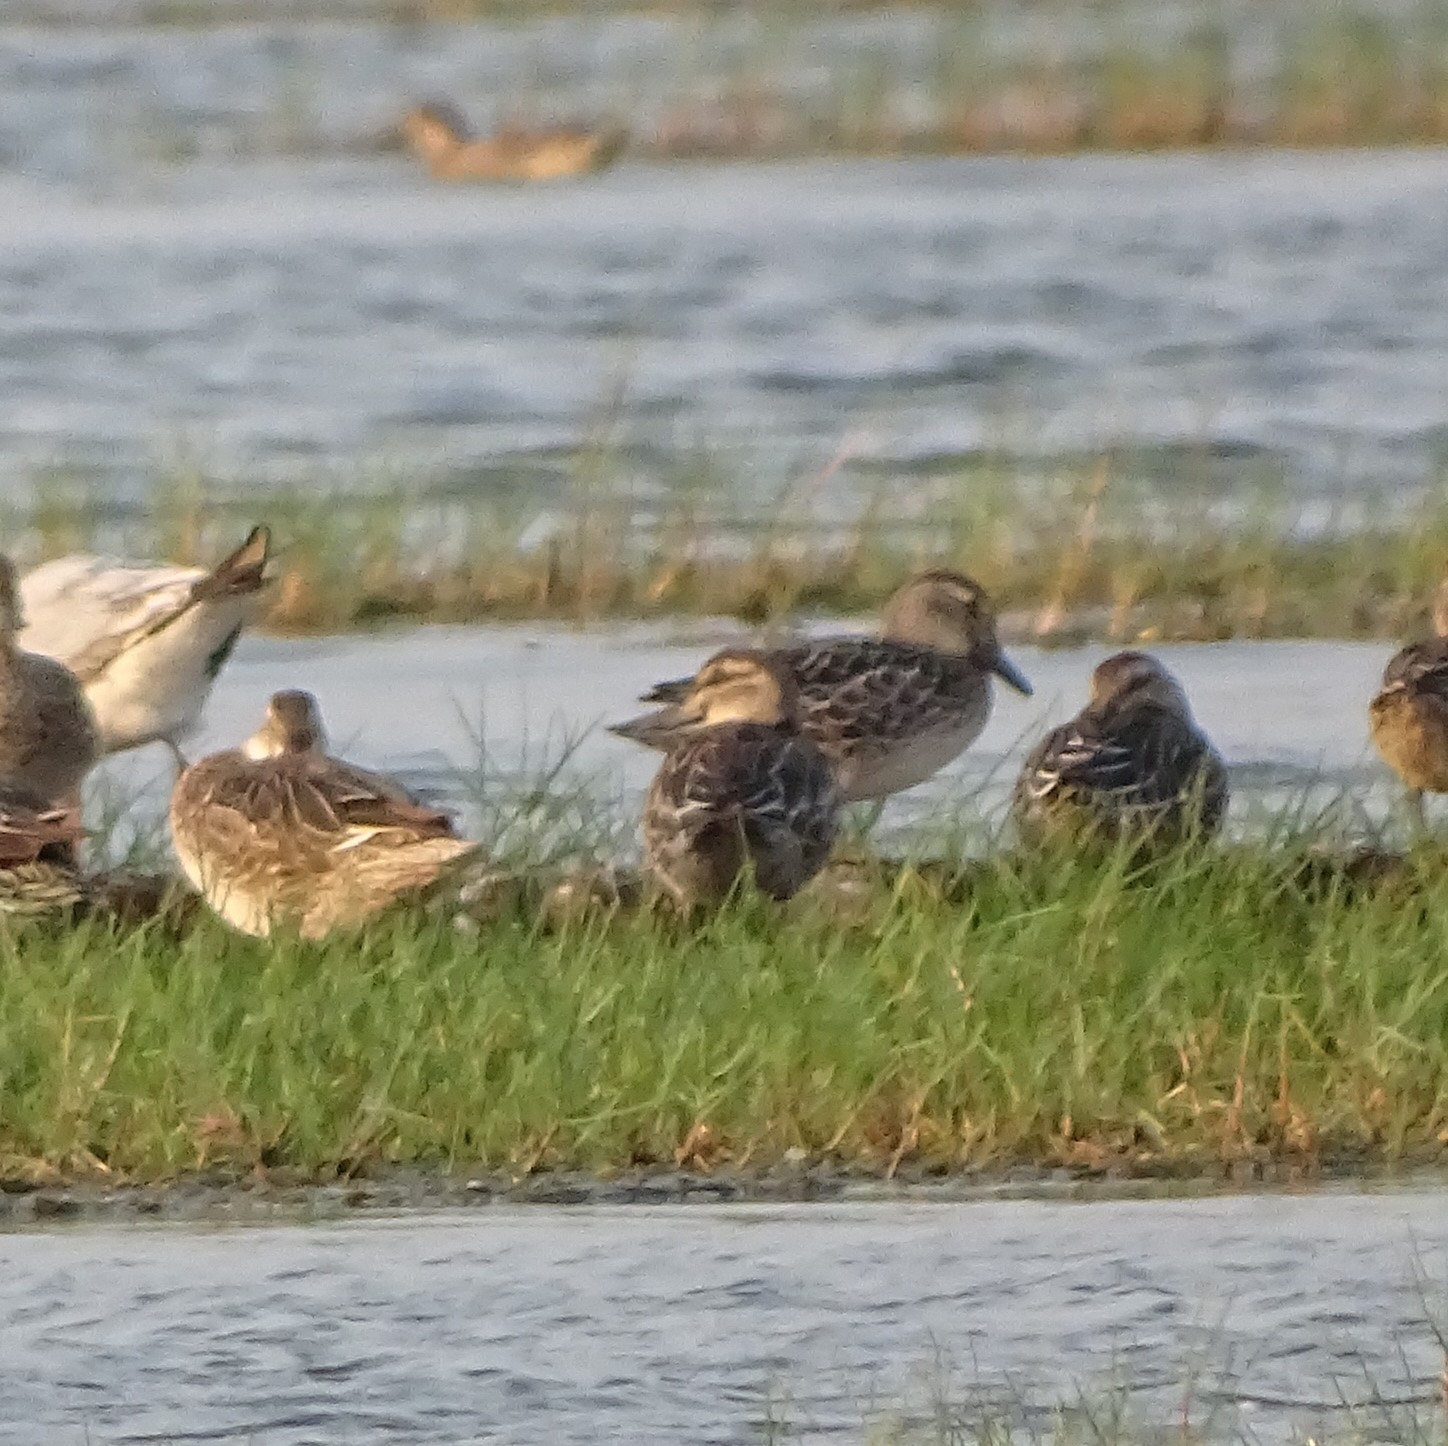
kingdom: Animalia
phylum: Chordata
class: Aves
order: Anseriformes
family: Anatidae
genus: Spatula
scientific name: Spatula querquedula
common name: Garganey
